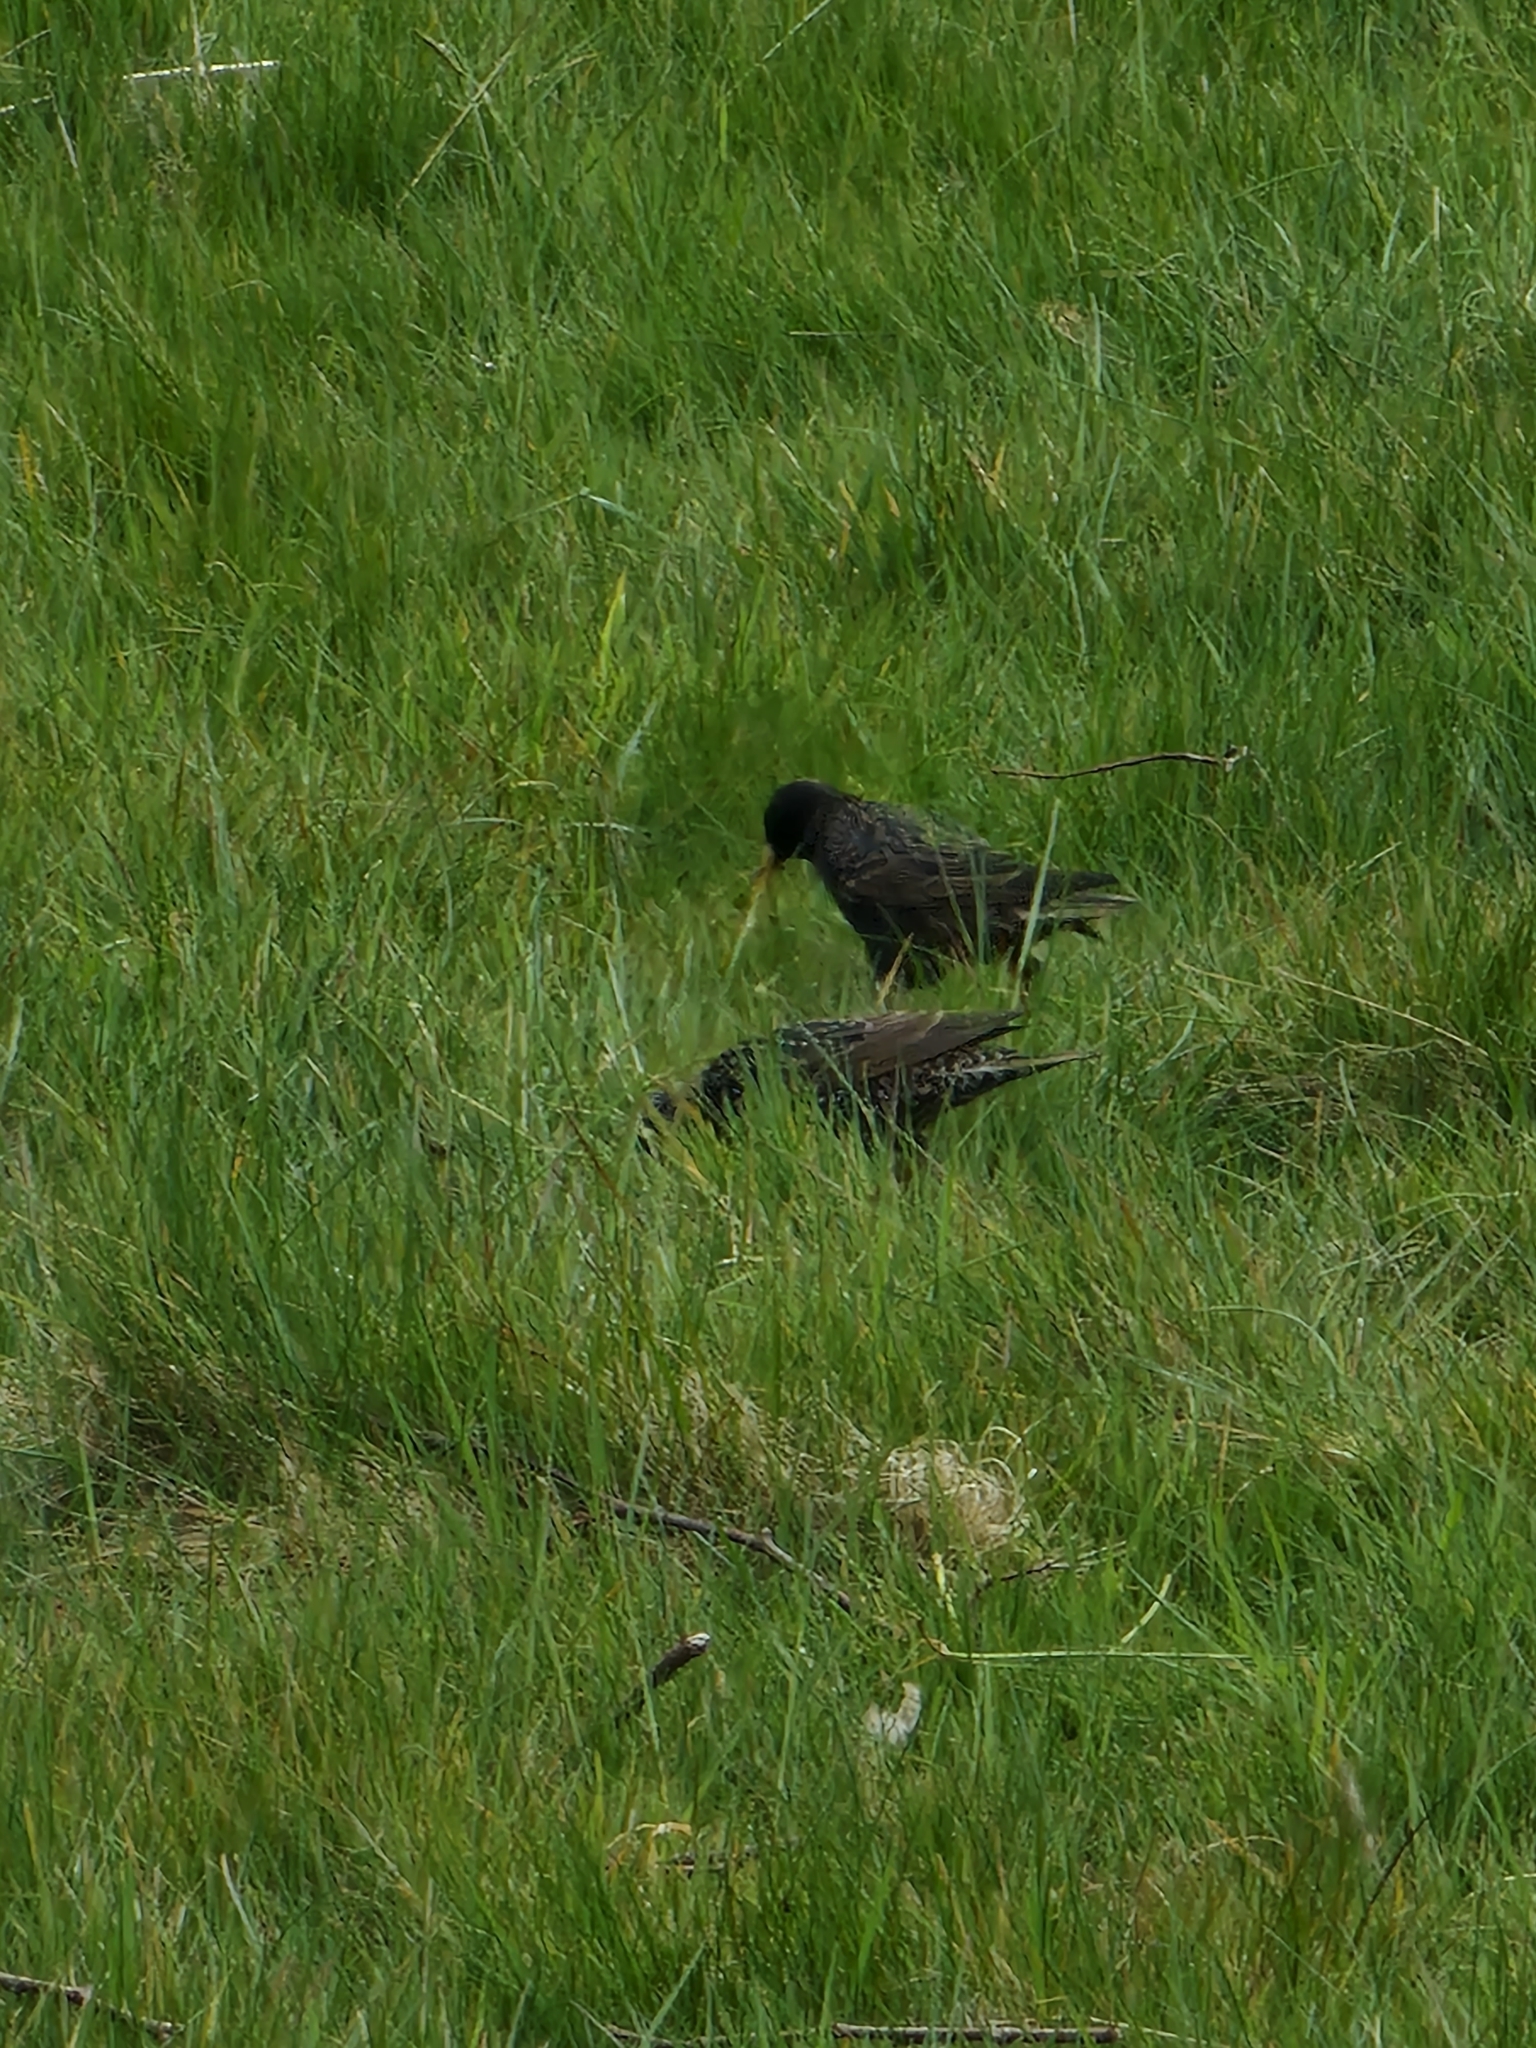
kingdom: Animalia
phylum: Chordata
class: Aves
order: Passeriformes
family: Sturnidae
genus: Sturnus
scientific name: Sturnus vulgaris
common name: Common starling
